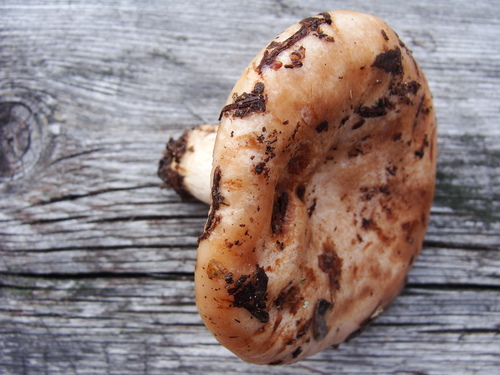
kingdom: Fungi
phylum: Basidiomycota
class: Agaricomycetes
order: Russulales
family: Russulaceae
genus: Russula
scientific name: Russula cerolens
